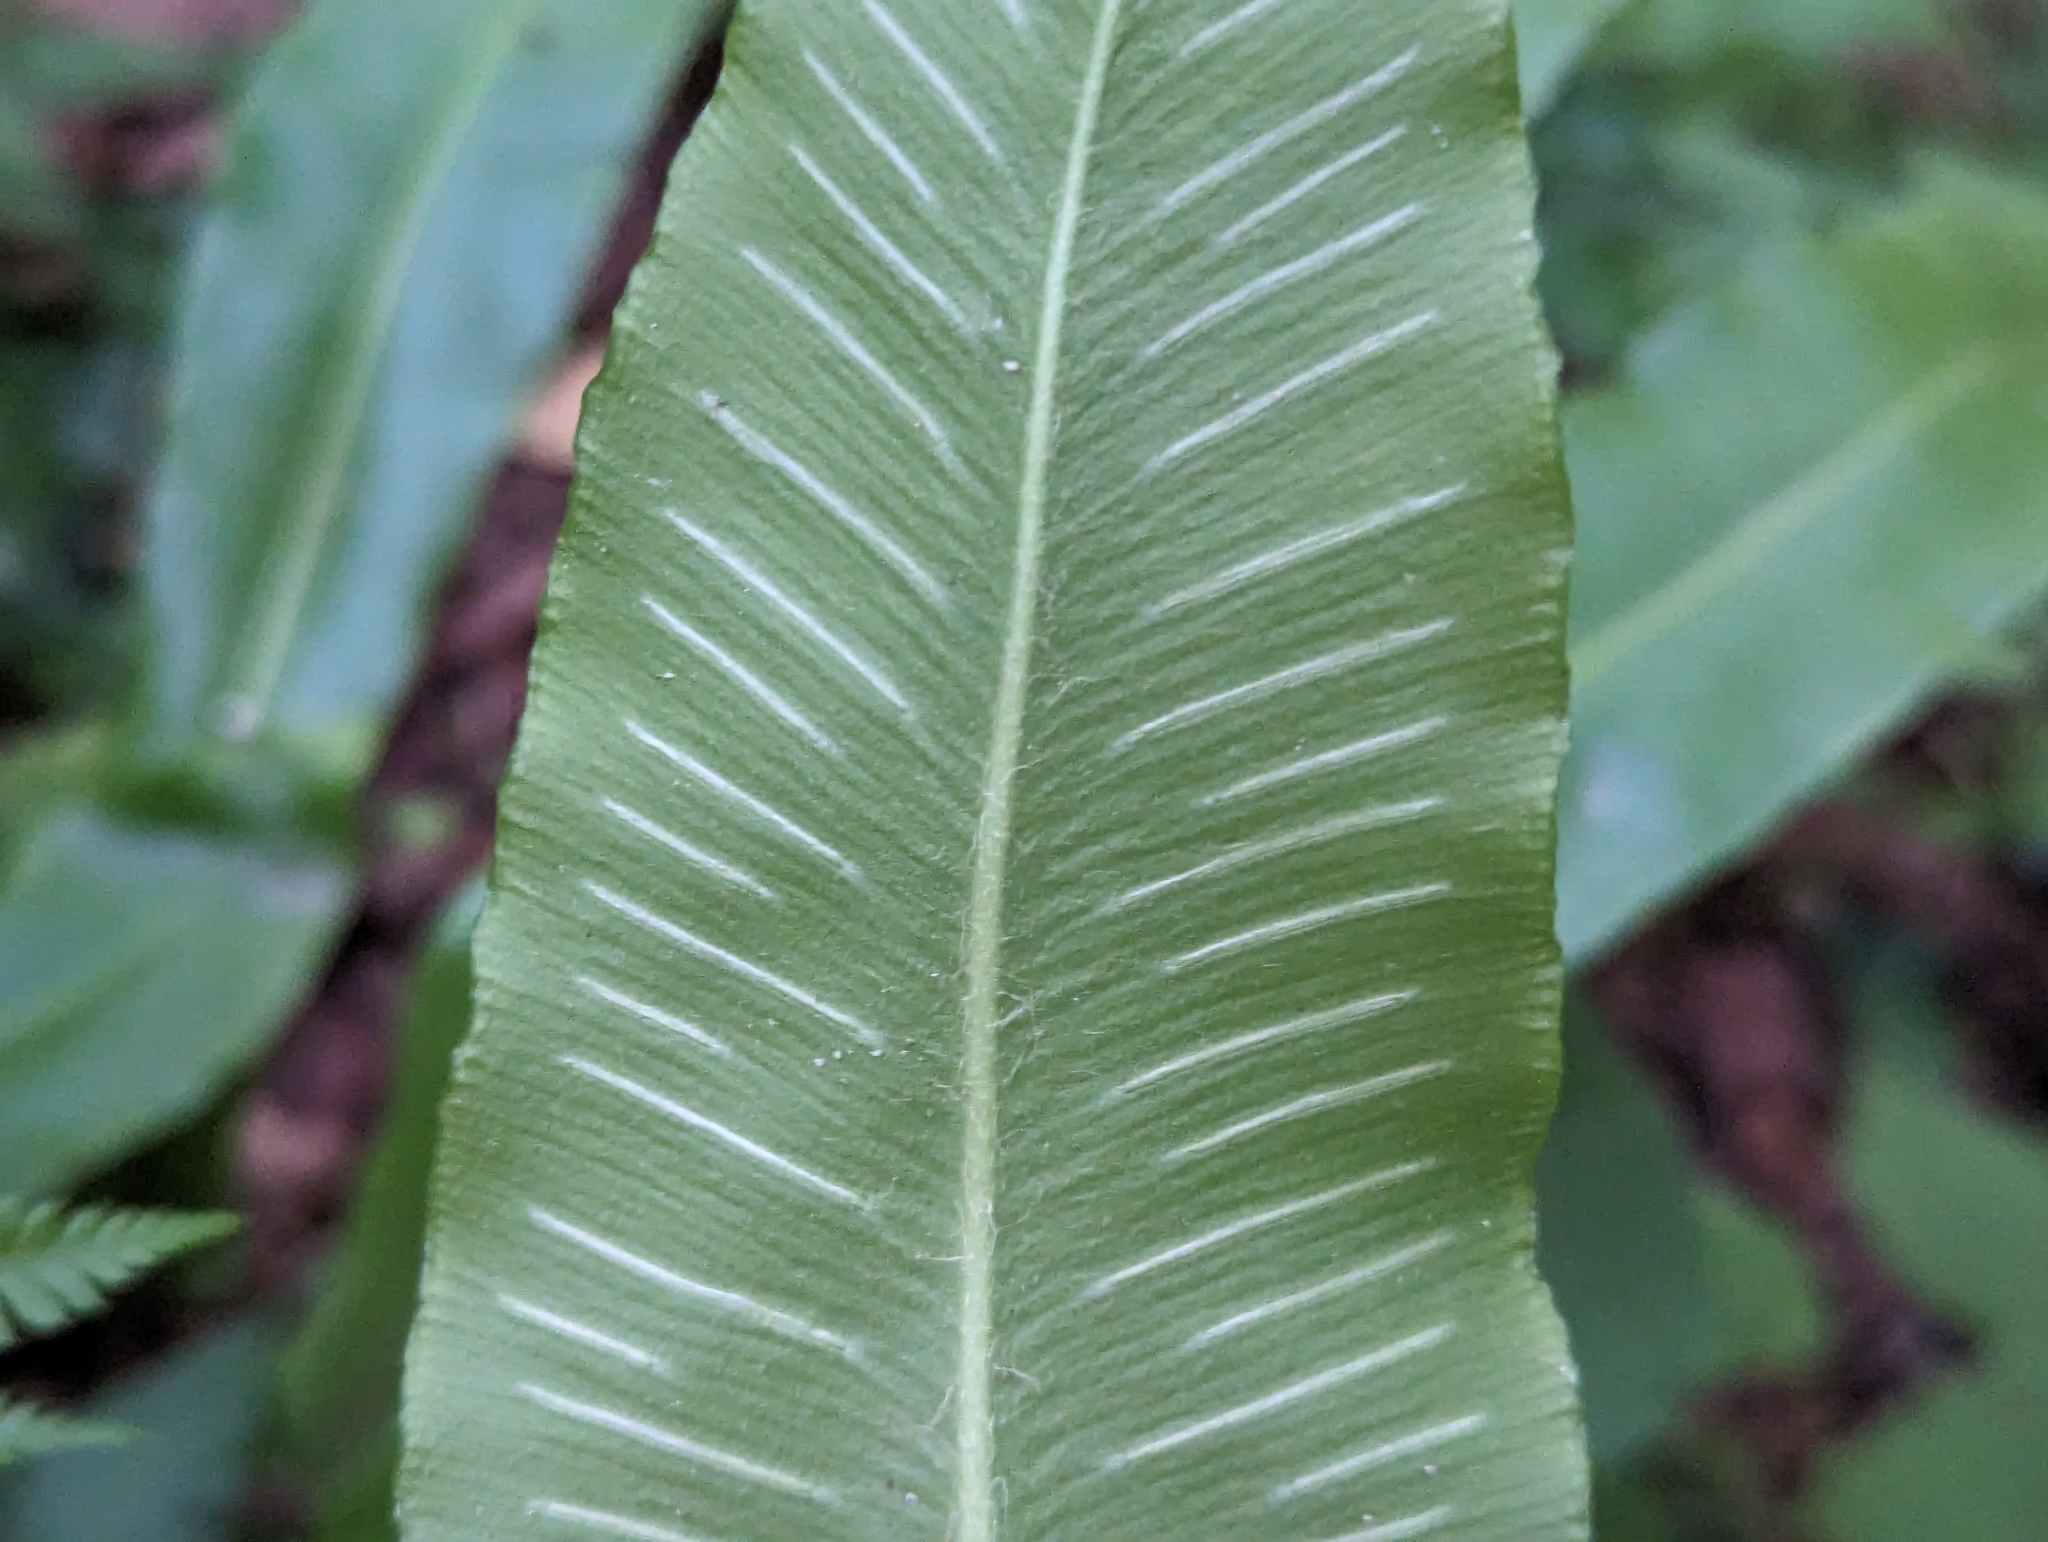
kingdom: Plantae
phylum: Tracheophyta
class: Polypodiopsida
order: Polypodiales
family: Aspleniaceae
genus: Asplenium
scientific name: Asplenium scolopendrium
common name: Hart's-tongue fern
